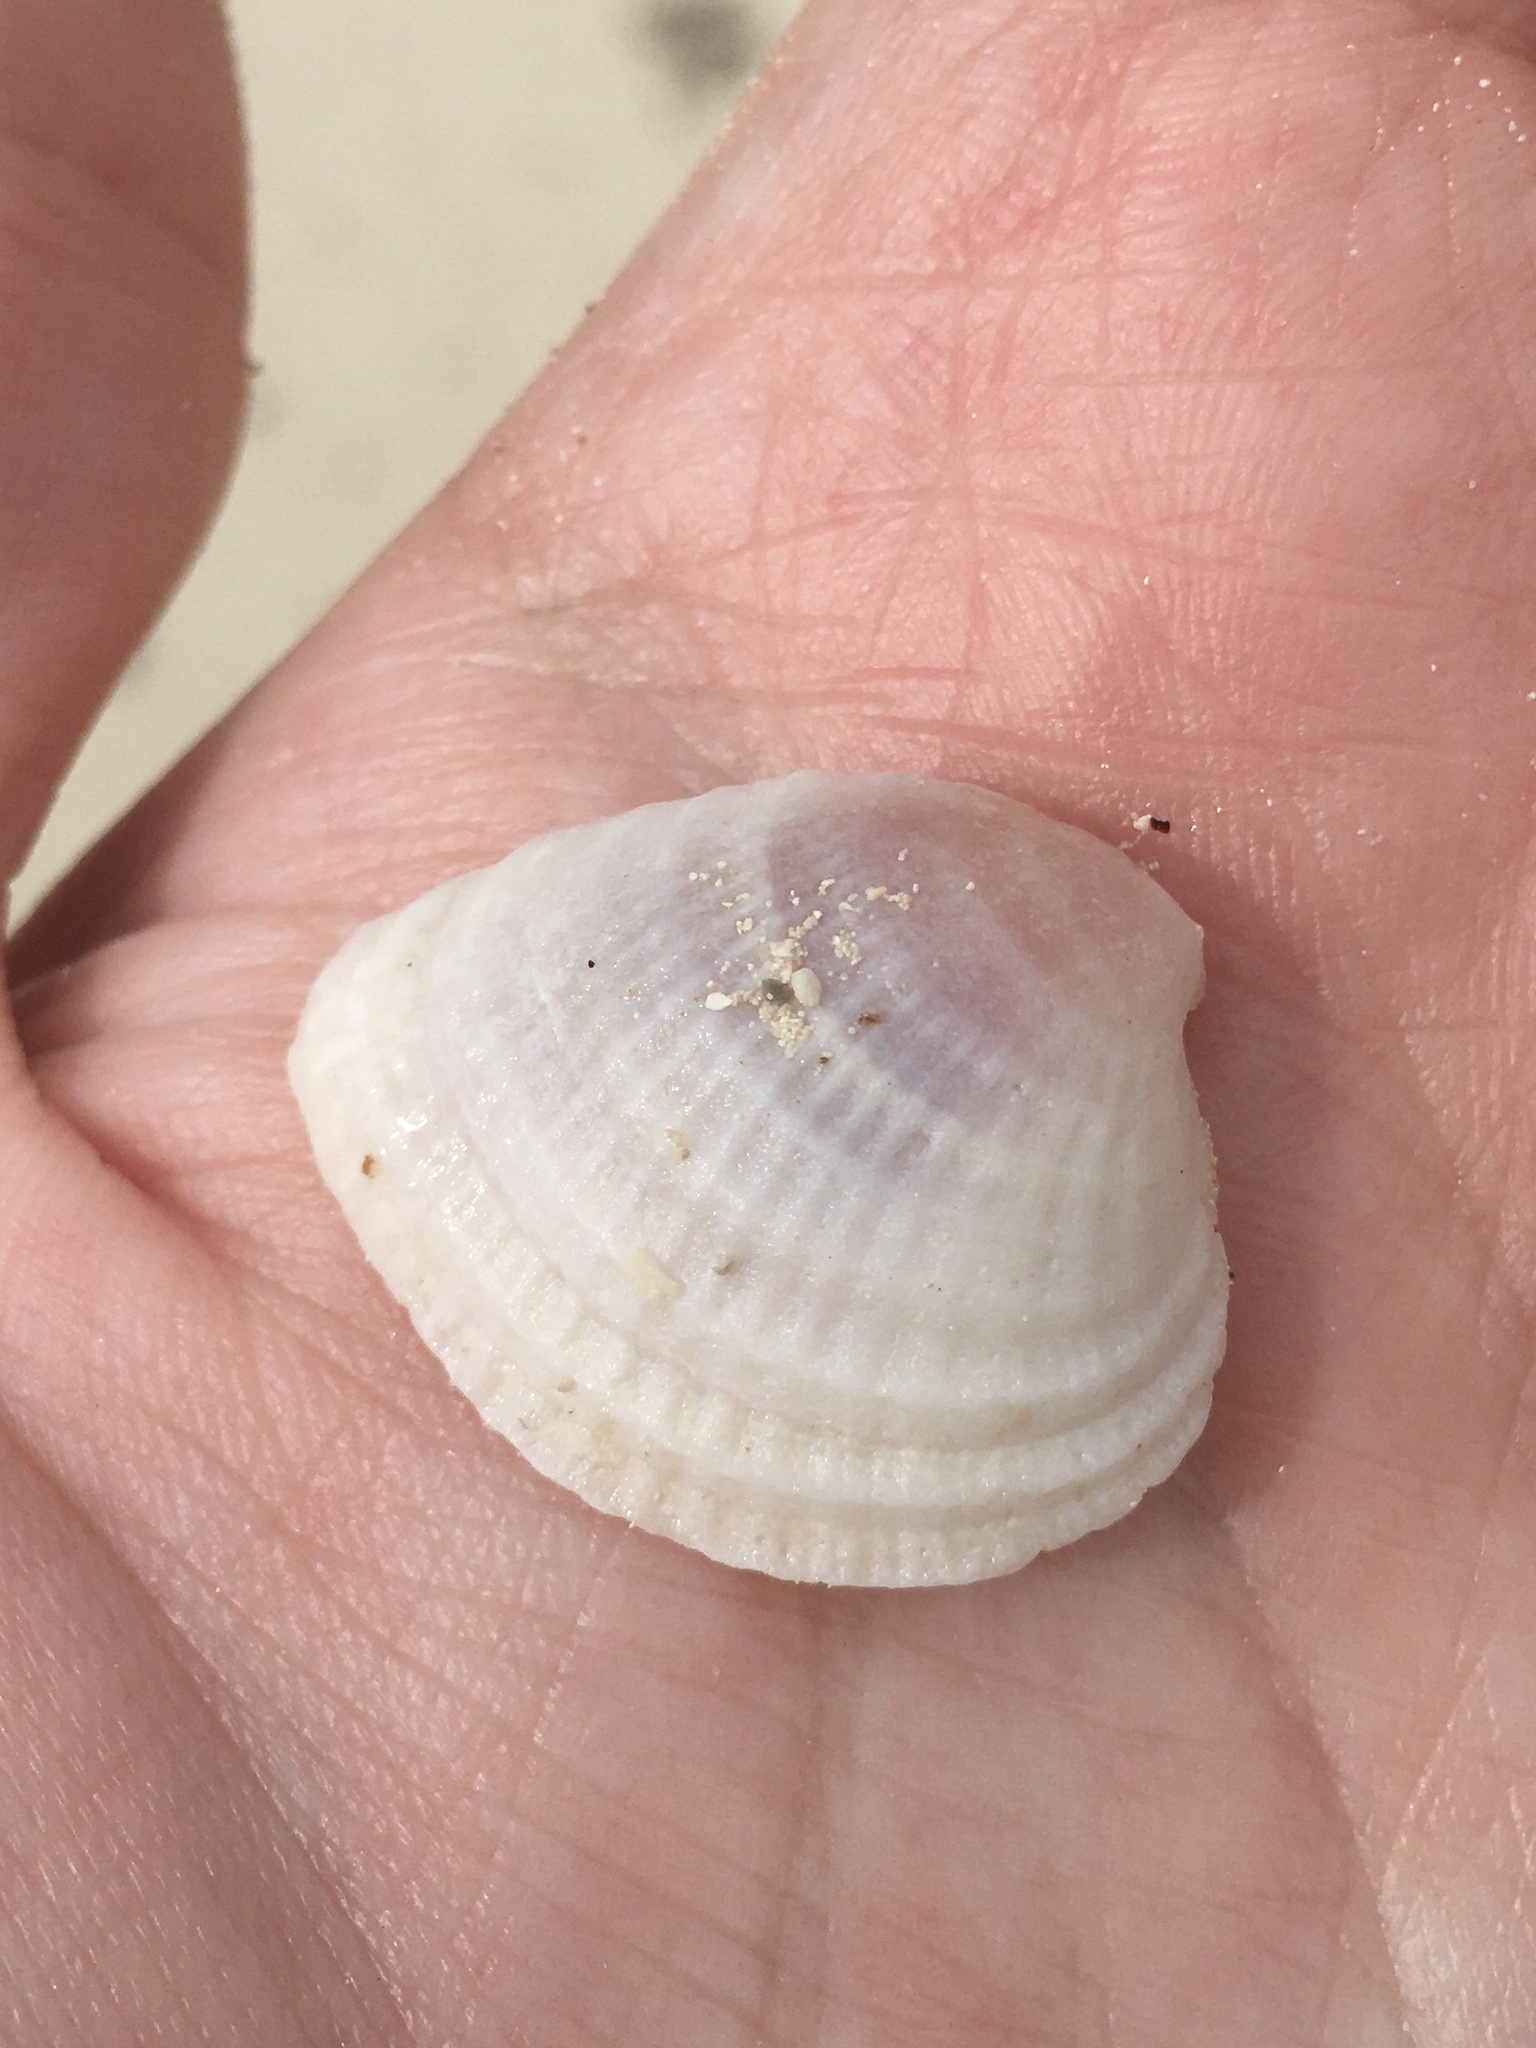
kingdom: Animalia
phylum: Mollusca
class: Bivalvia
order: Venerida
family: Veneridae
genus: Chione
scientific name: Chione elevata
